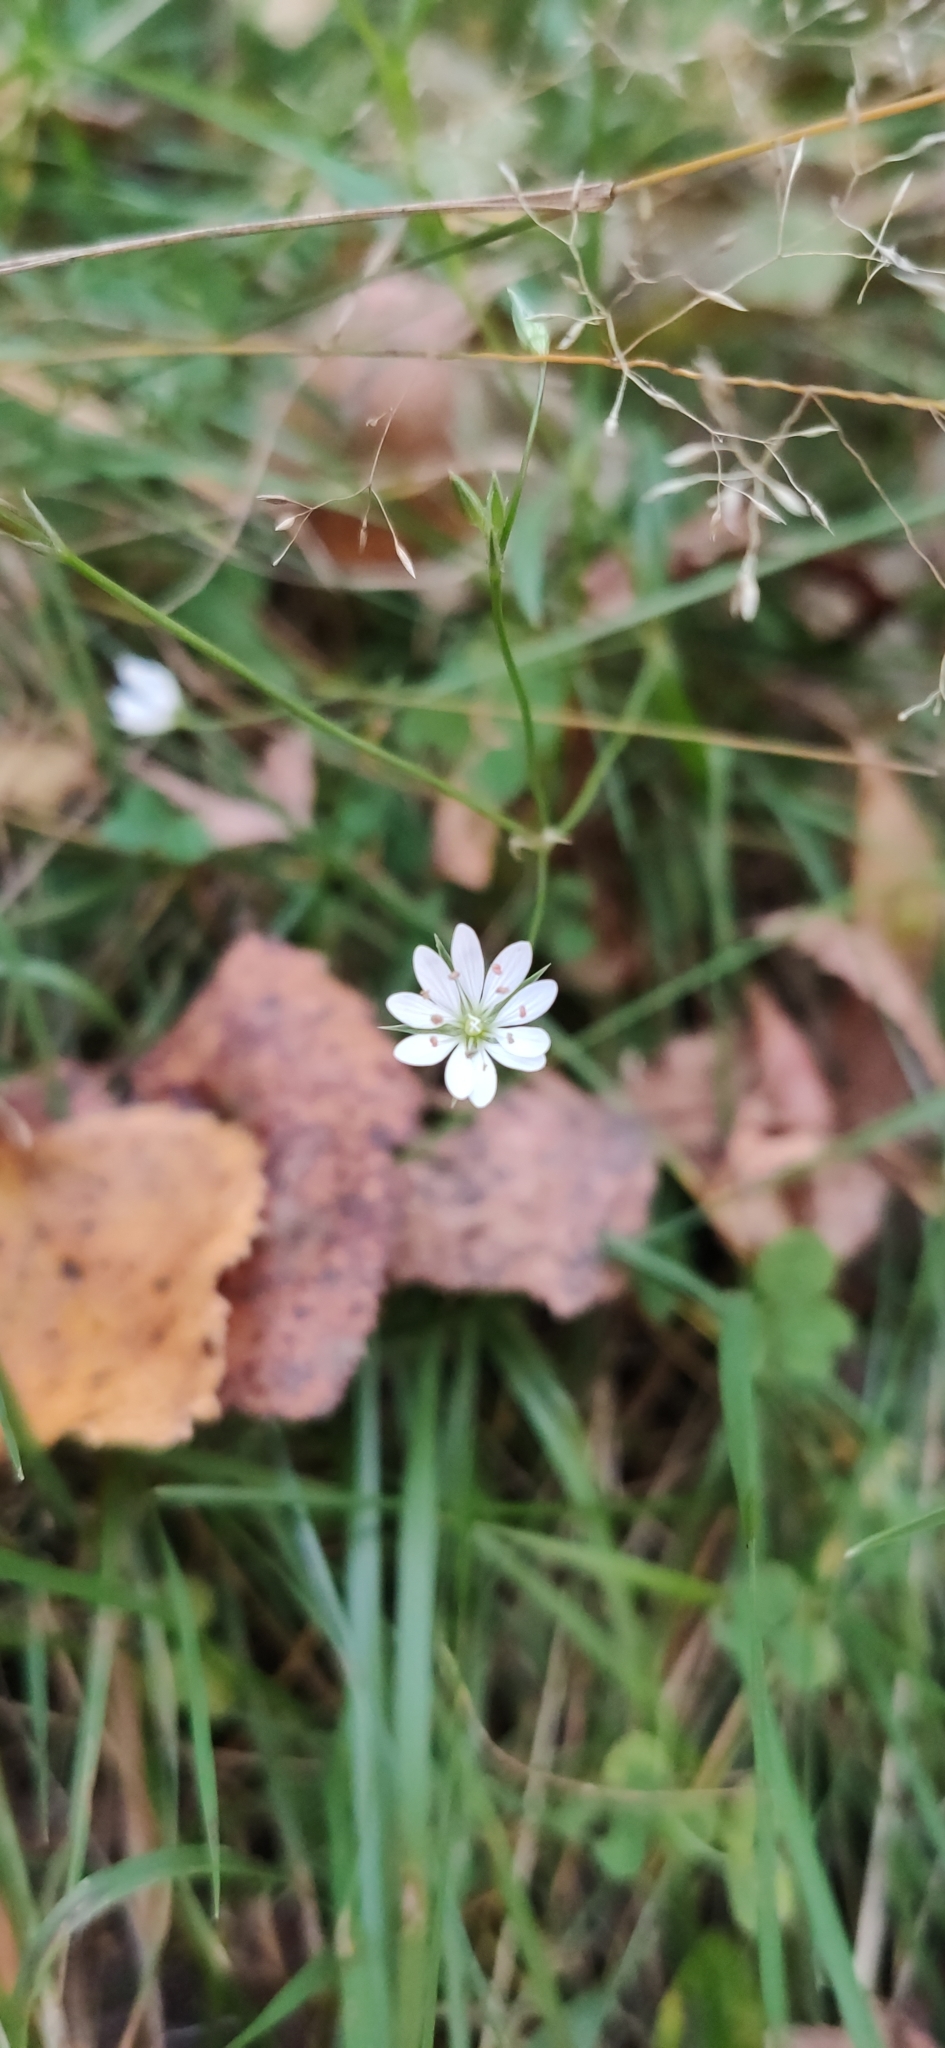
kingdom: Plantae
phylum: Tracheophyta
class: Magnoliopsida
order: Caryophyllales
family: Caryophyllaceae
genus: Stellaria
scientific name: Stellaria graminea
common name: Grass-like starwort
